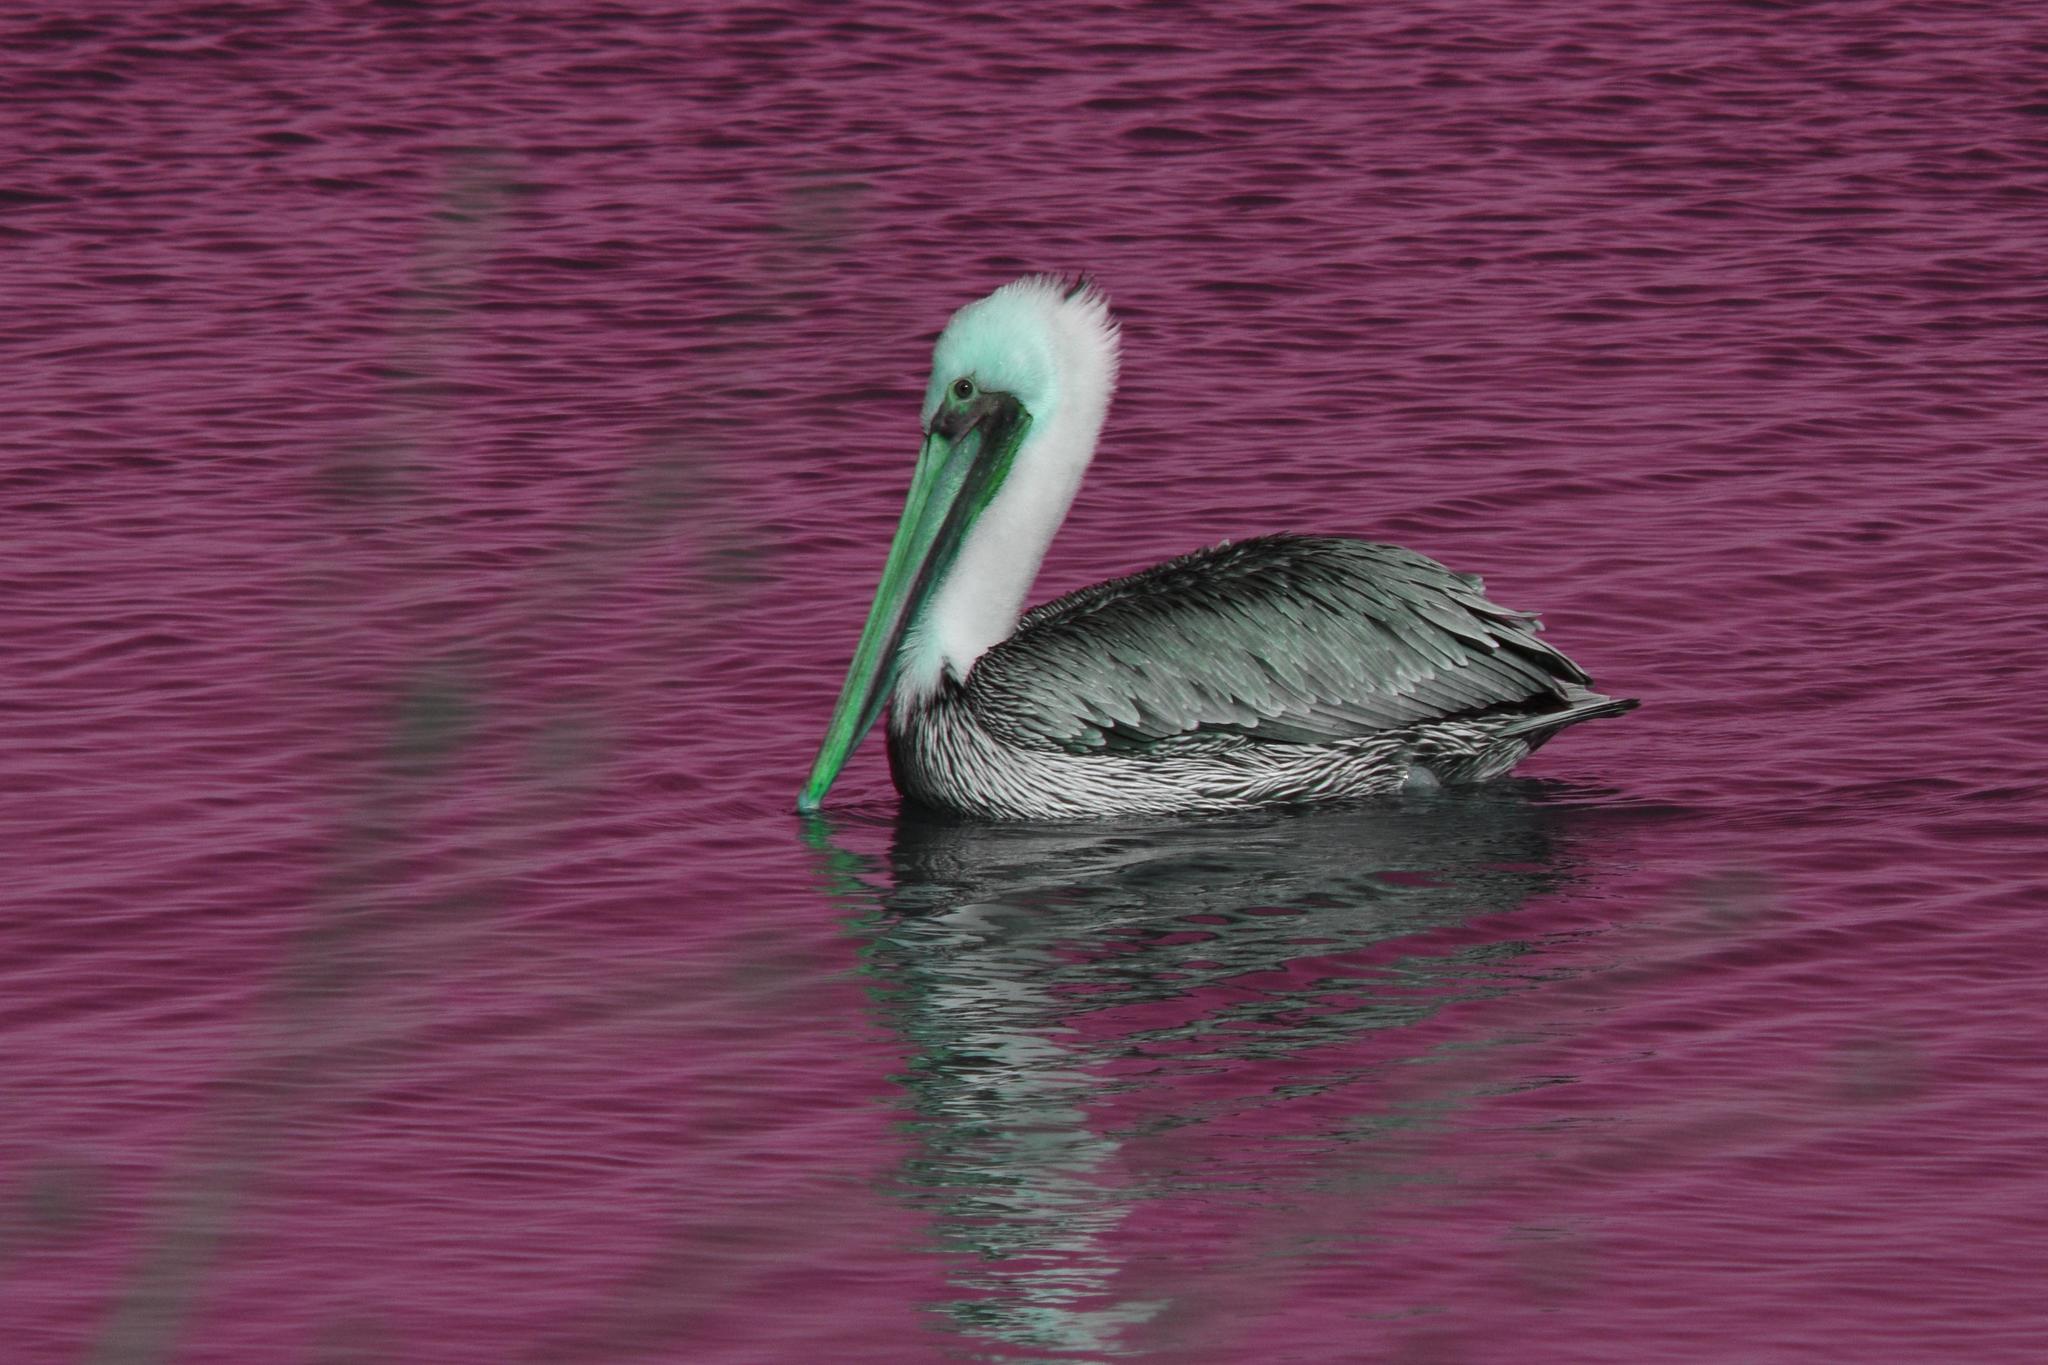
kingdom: Animalia
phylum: Chordata
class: Aves
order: Pelecaniformes
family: Pelecanidae
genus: Pelecanus
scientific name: Pelecanus occidentalis
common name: Brown pelican
